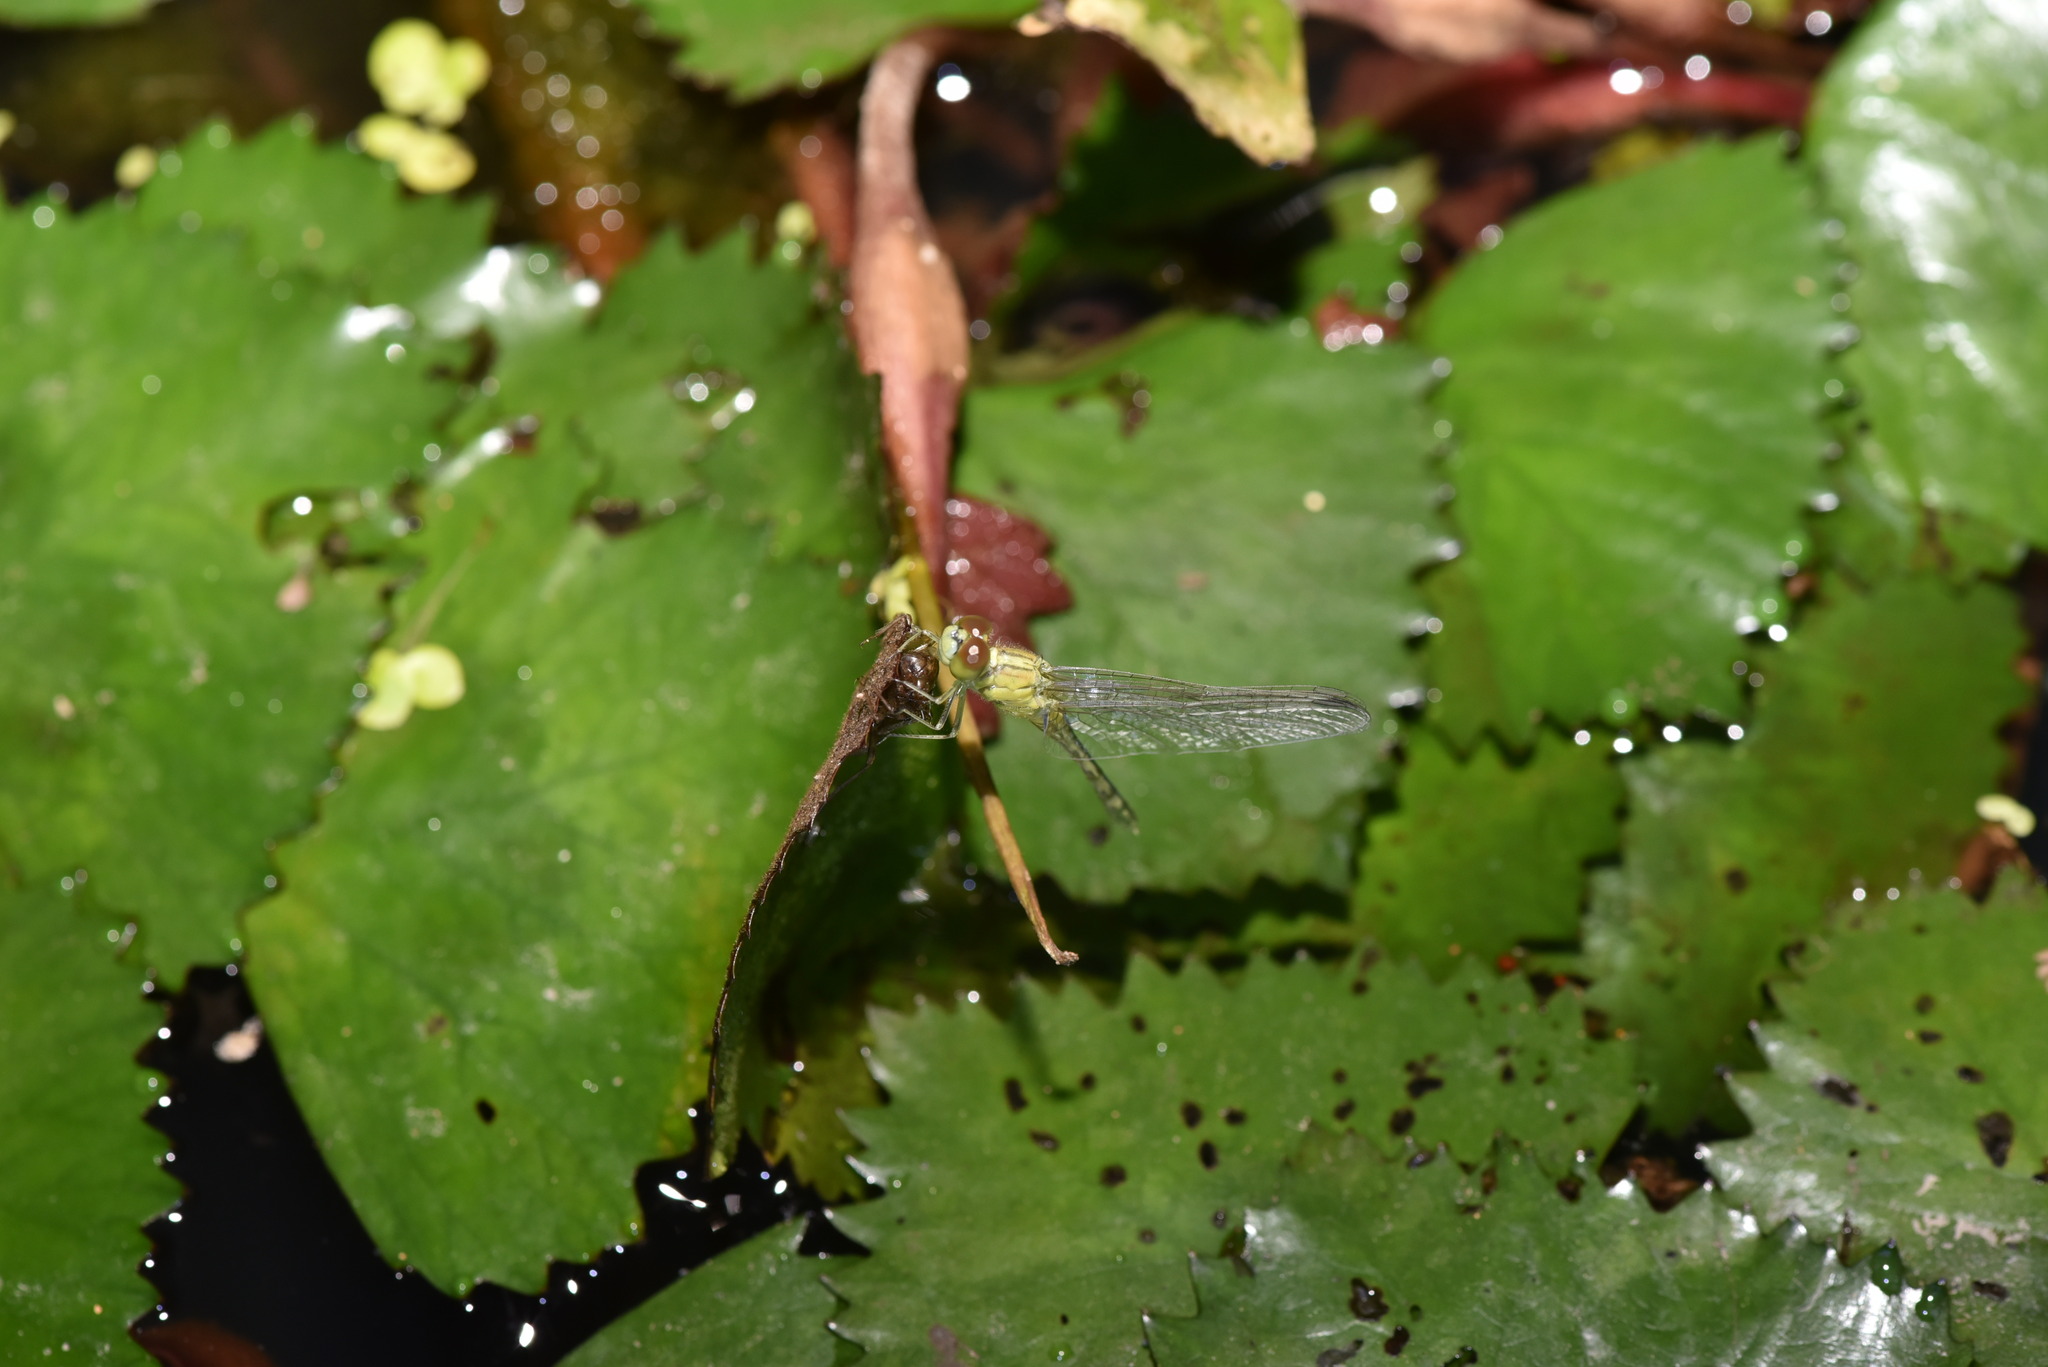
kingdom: Animalia
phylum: Arthropoda
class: Insecta
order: Odonata
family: Libellulidae
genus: Diplacodes
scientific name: Diplacodes trivialis
